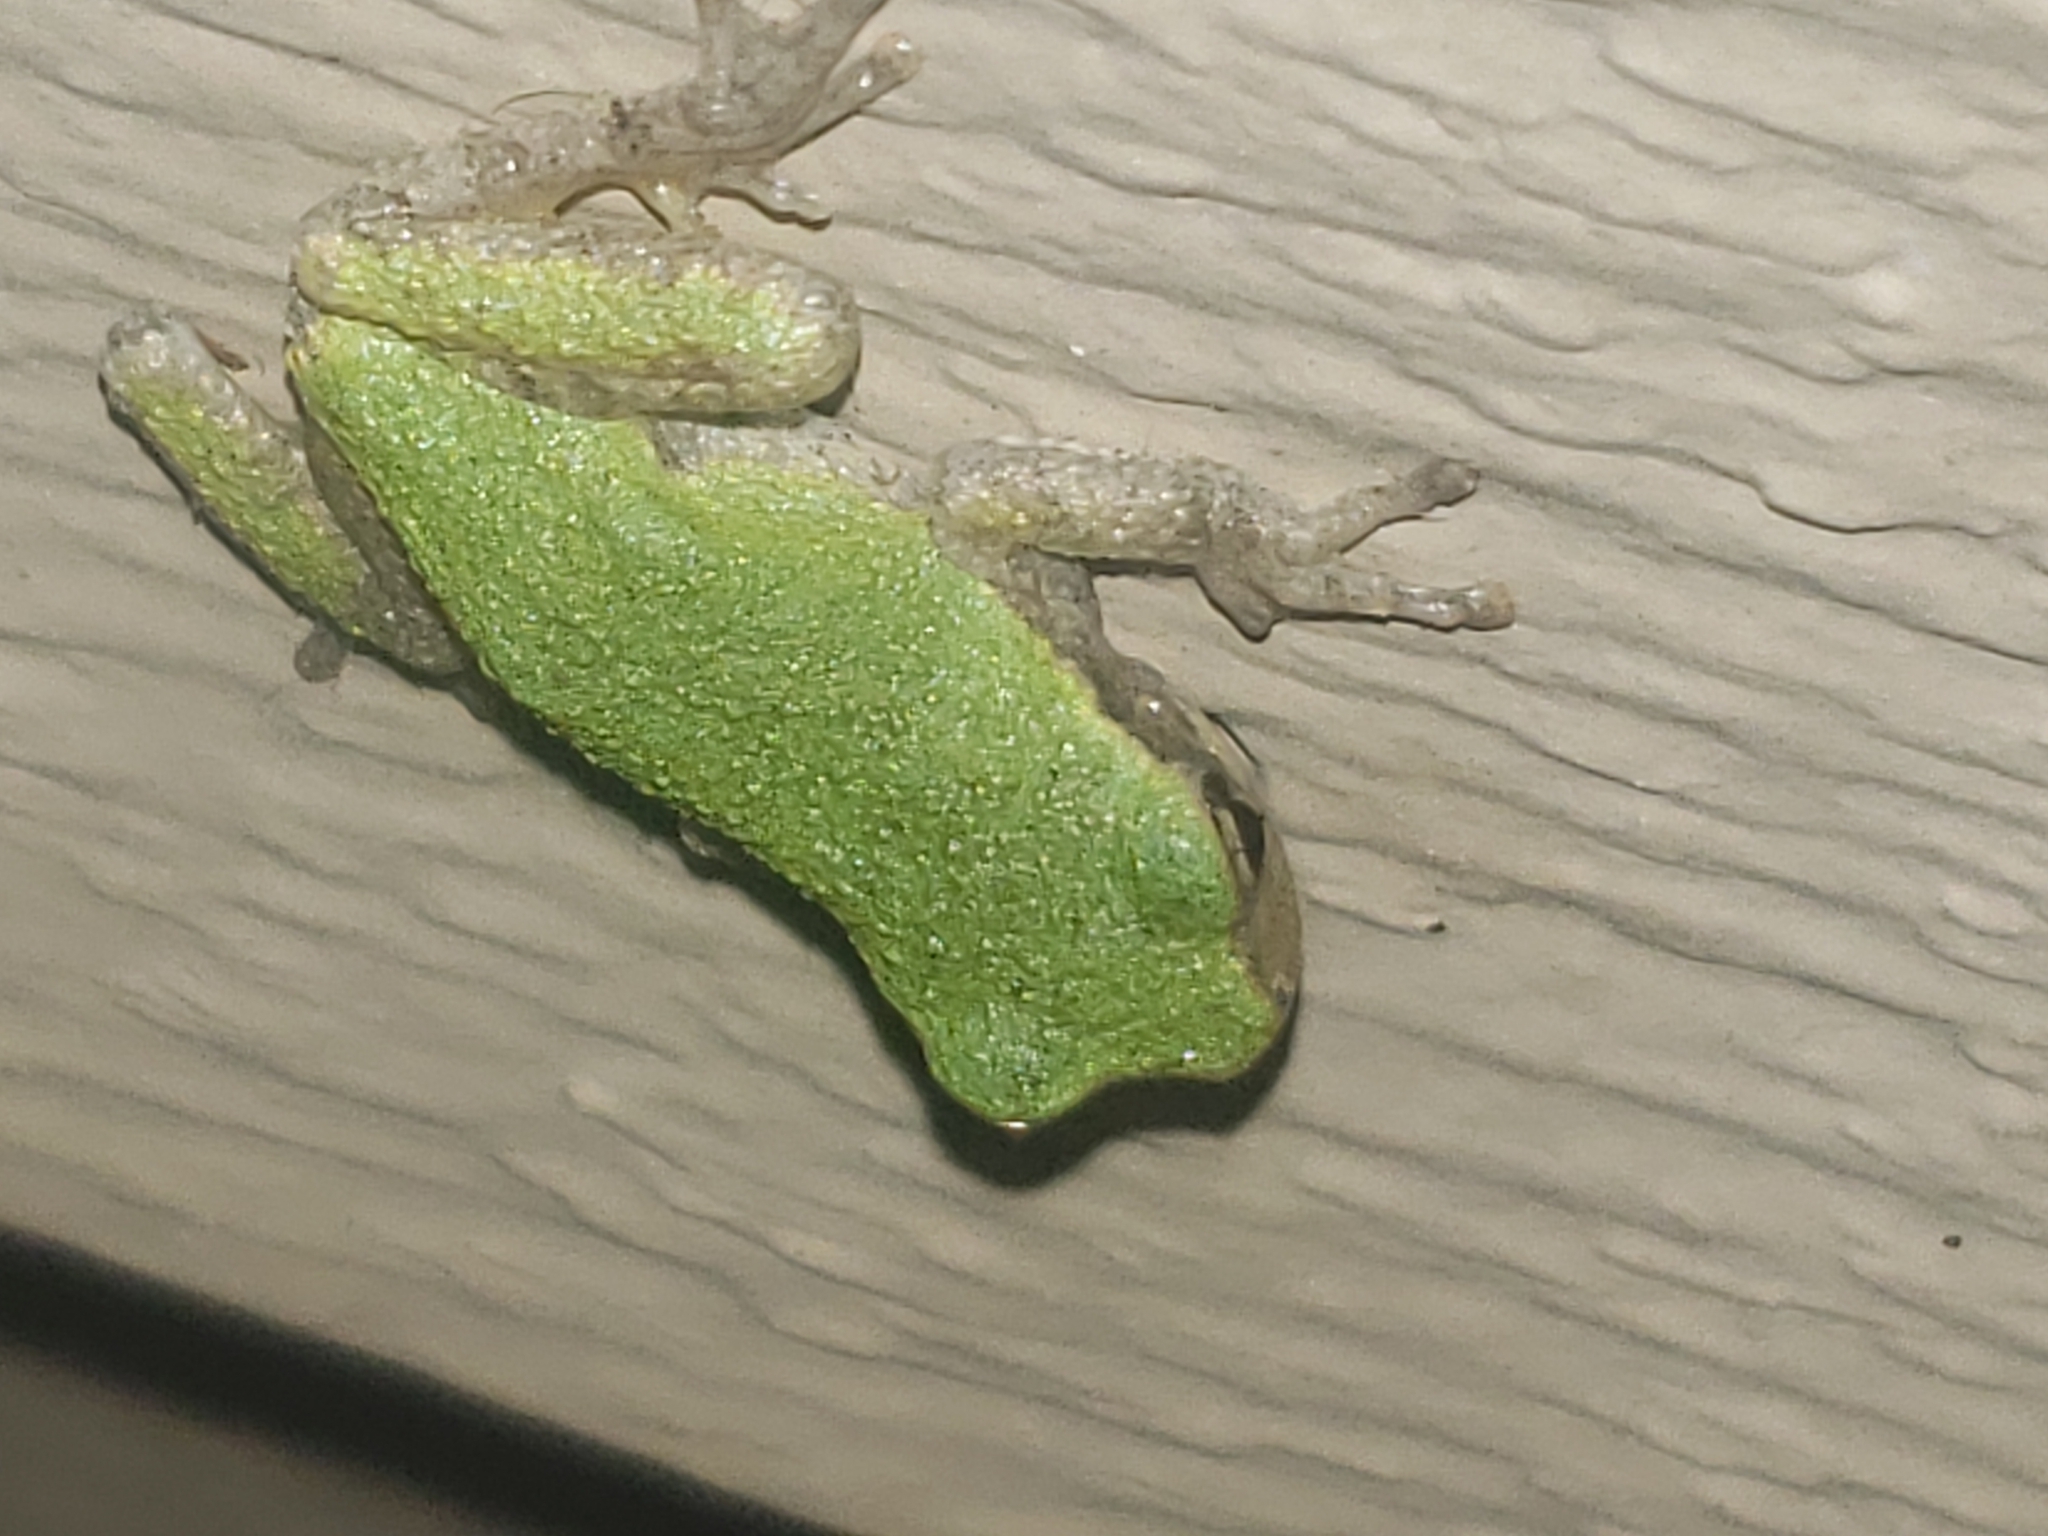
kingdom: Animalia
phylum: Chordata
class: Amphibia
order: Anura
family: Hylidae
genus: Hyla
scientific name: Hyla
